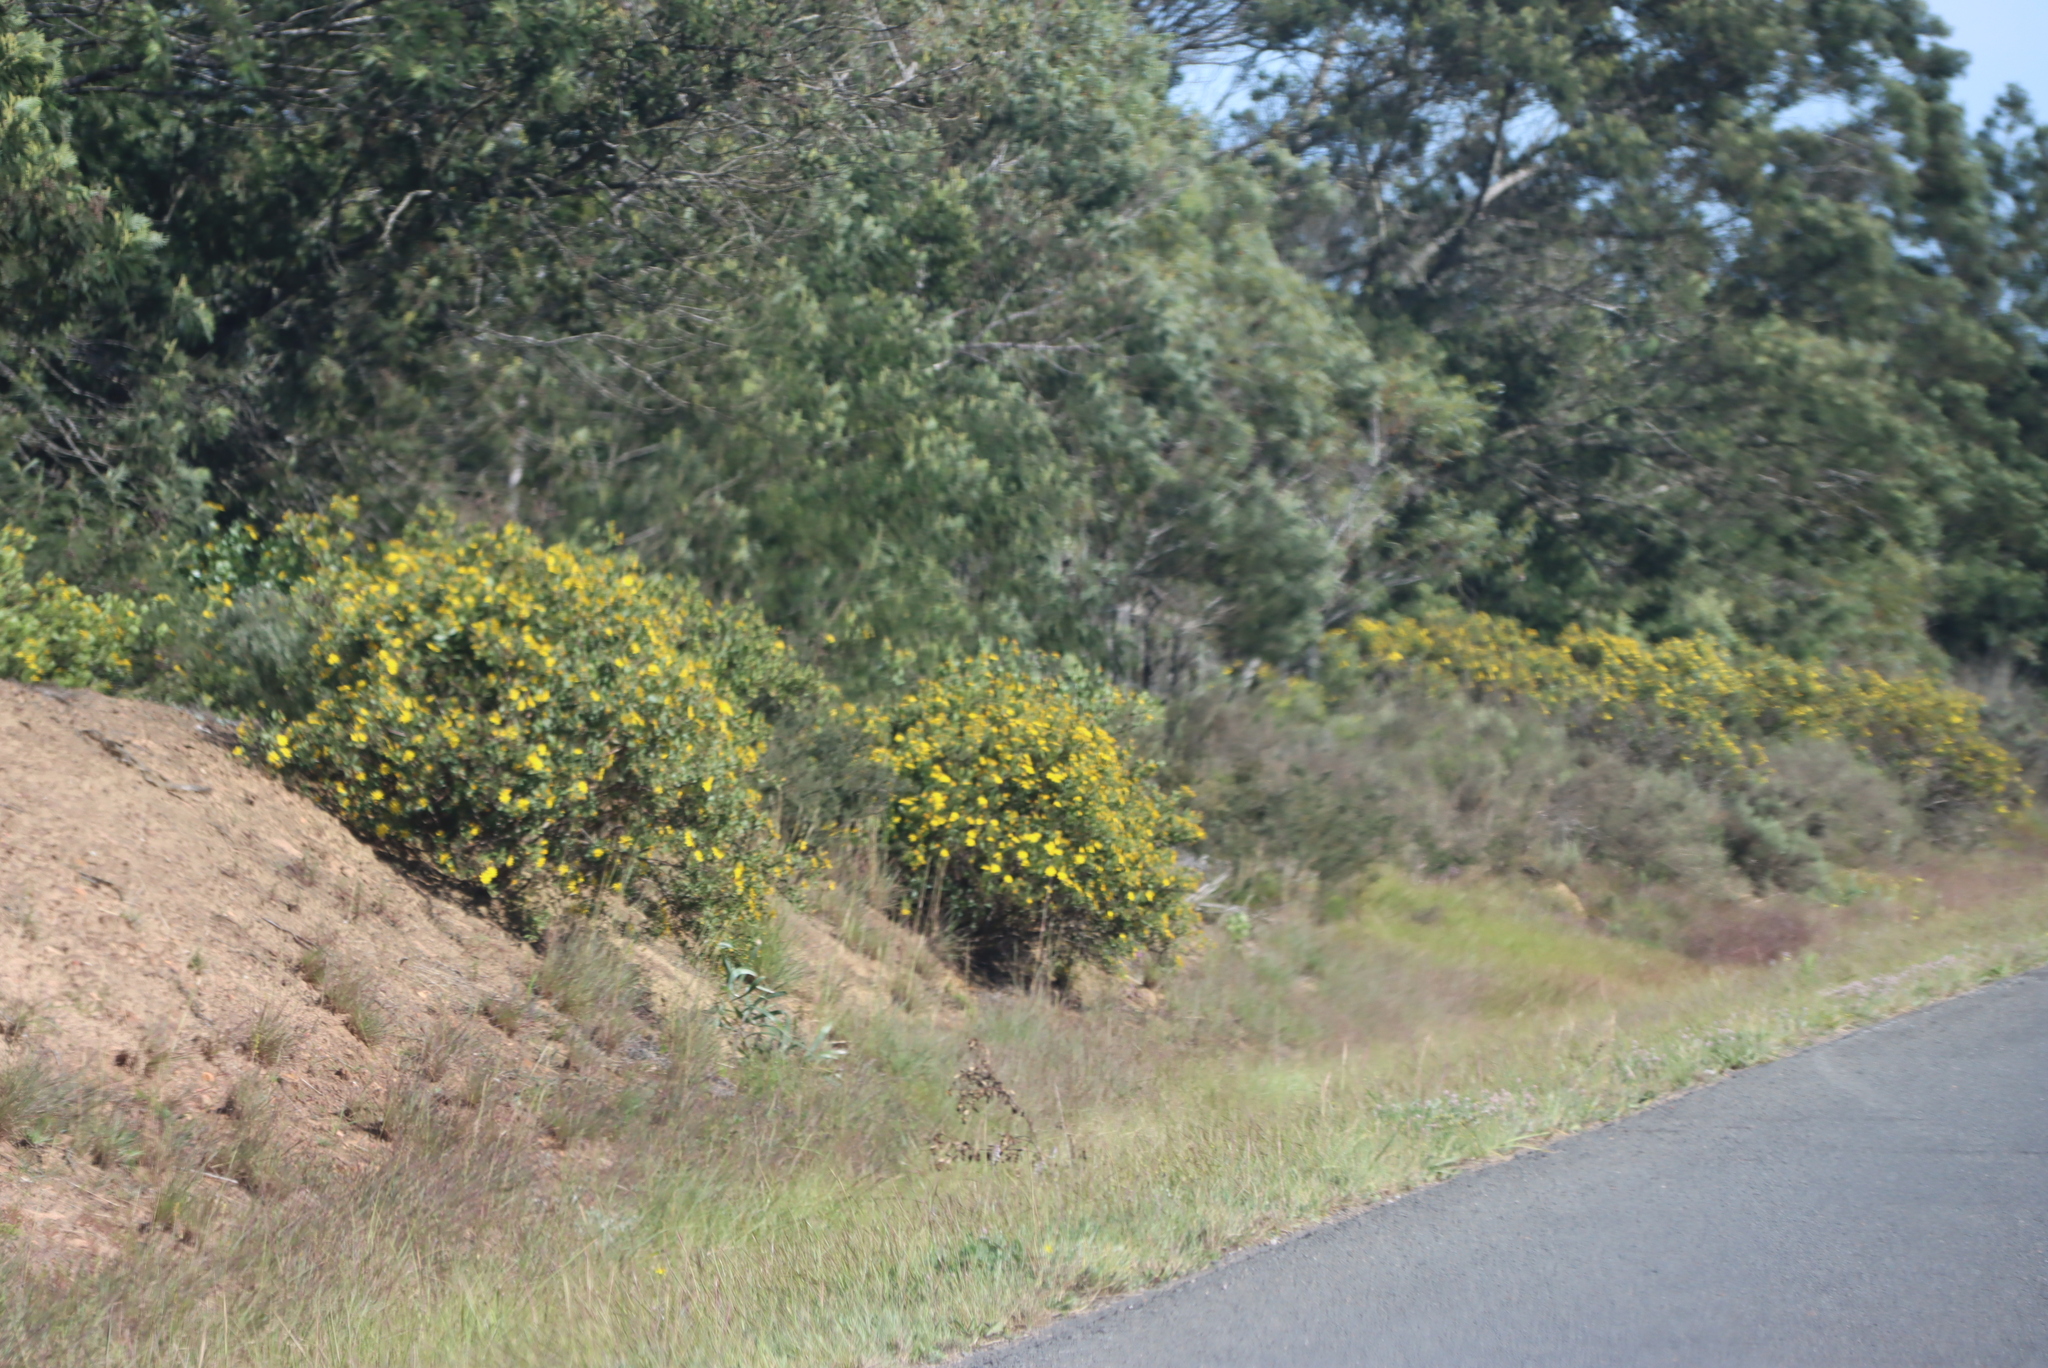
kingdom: Plantae
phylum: Tracheophyta
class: Magnoliopsida
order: Asterales
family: Asteraceae
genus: Osteospermum
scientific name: Osteospermum moniliferum
